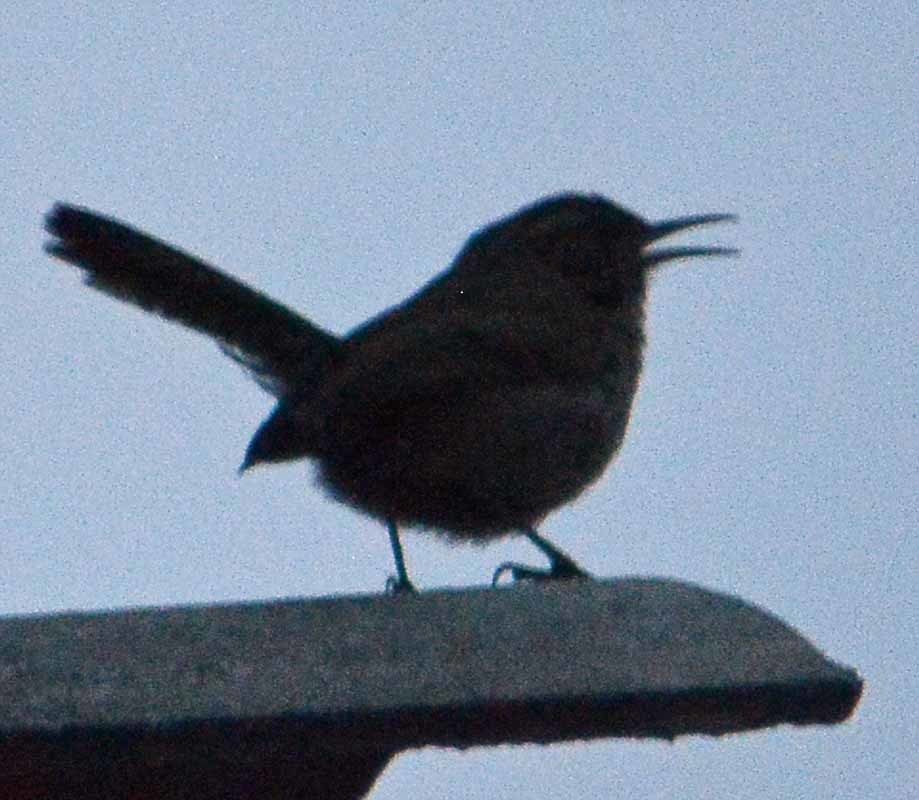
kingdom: Animalia
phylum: Chordata
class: Aves
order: Passeriformes
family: Troglodytidae
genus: Thryomanes
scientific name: Thryomanes bewickii
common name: Bewick's wren
